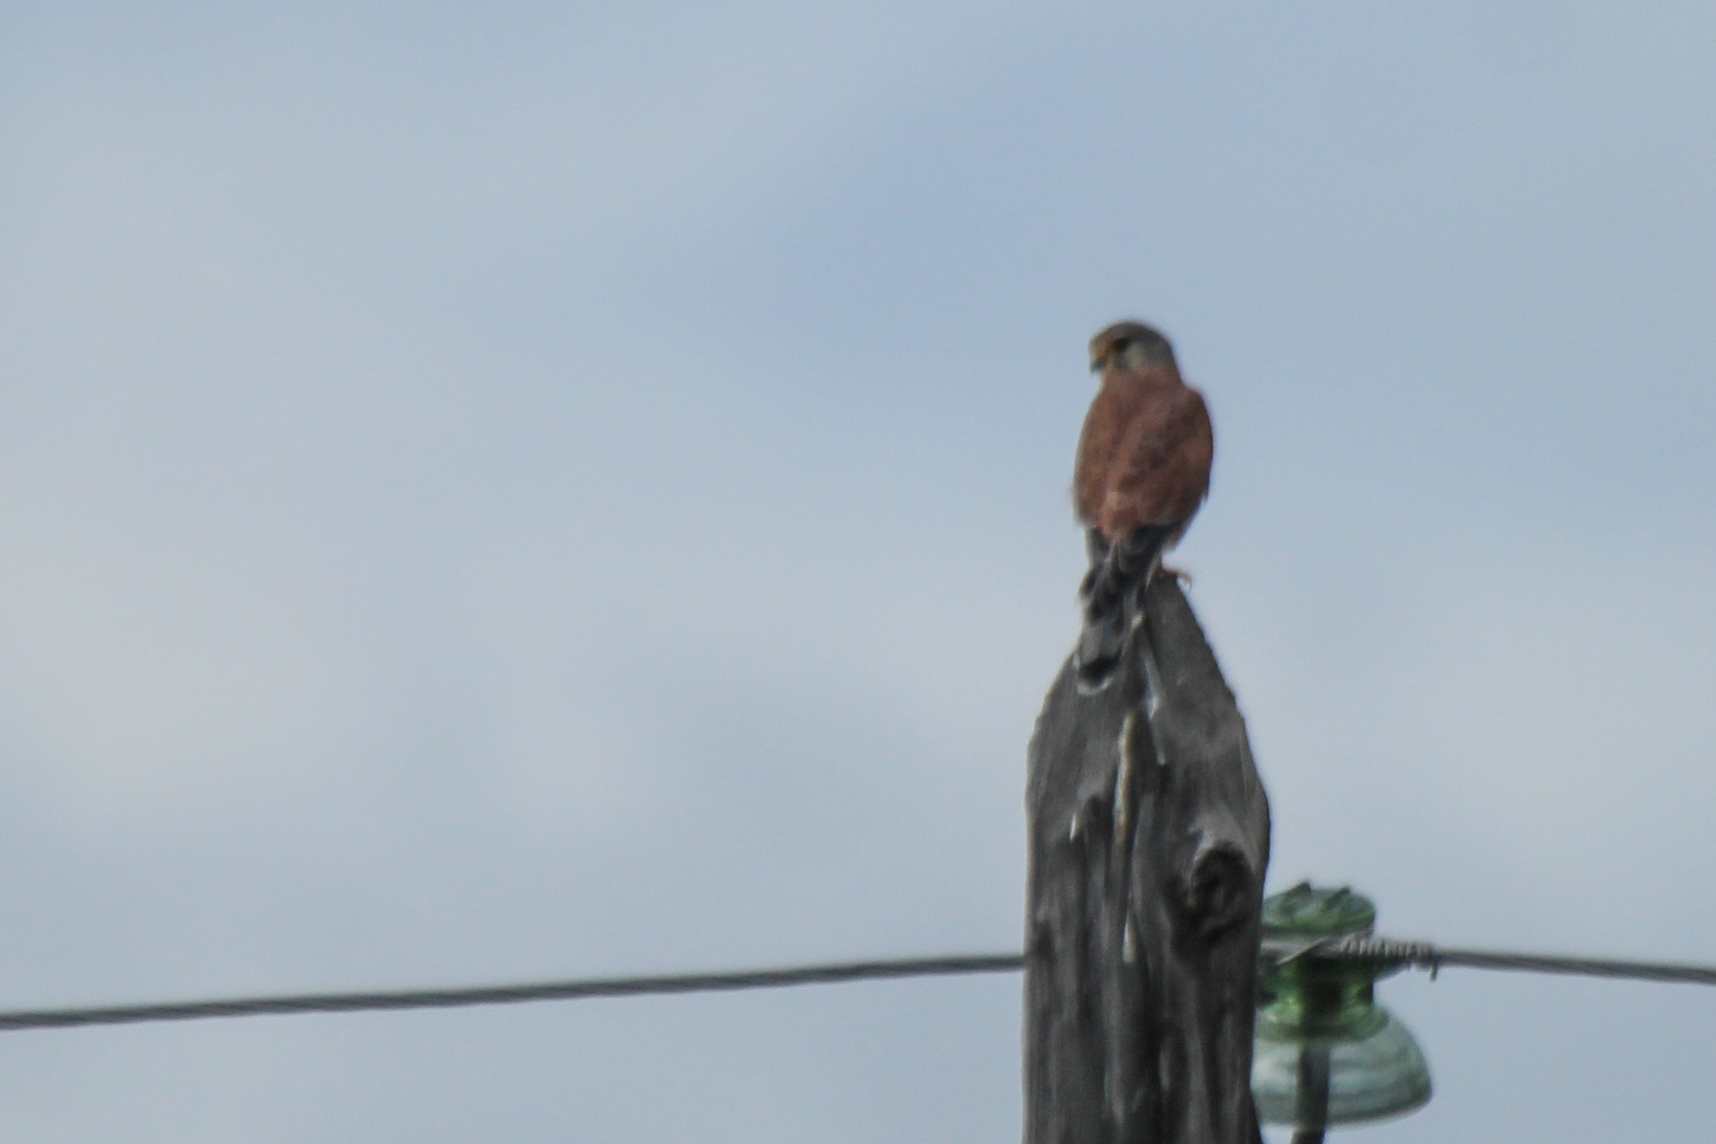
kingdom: Animalia
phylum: Chordata
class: Aves
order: Falconiformes
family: Falconidae
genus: Falco
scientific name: Falco tinnunculus
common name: Common kestrel
